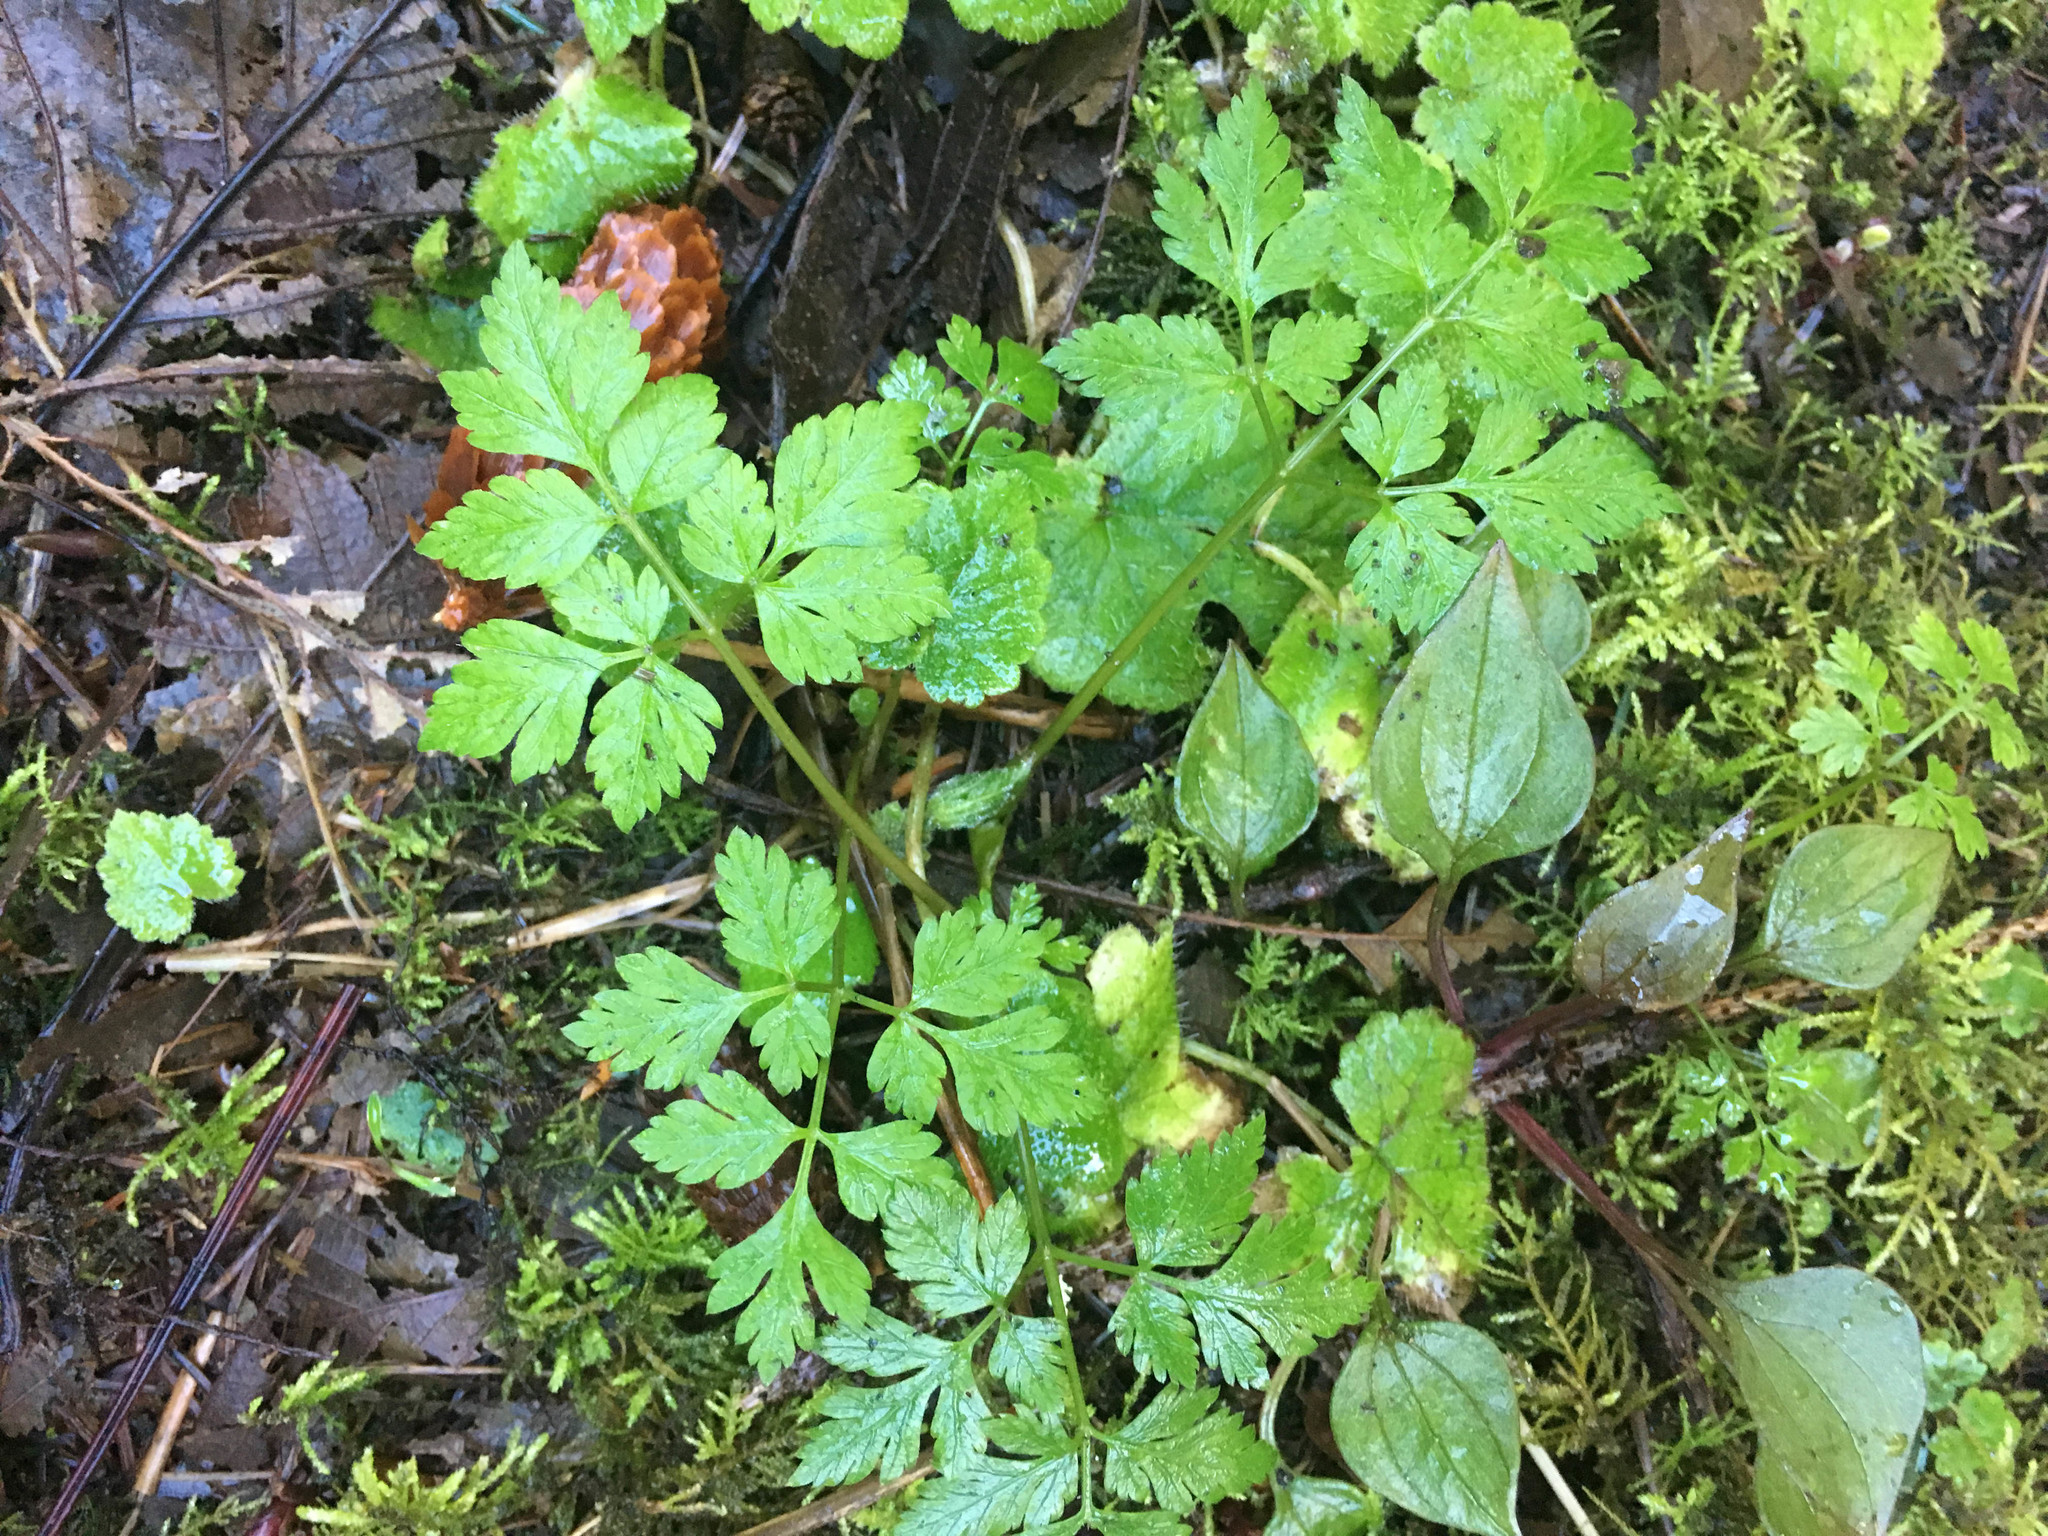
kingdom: Plantae
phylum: Tracheophyta
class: Magnoliopsida
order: Boraginales
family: Hydrophyllaceae
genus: Hydrophyllum
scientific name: Hydrophyllum tenuipes
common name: Pacific waterleaf
